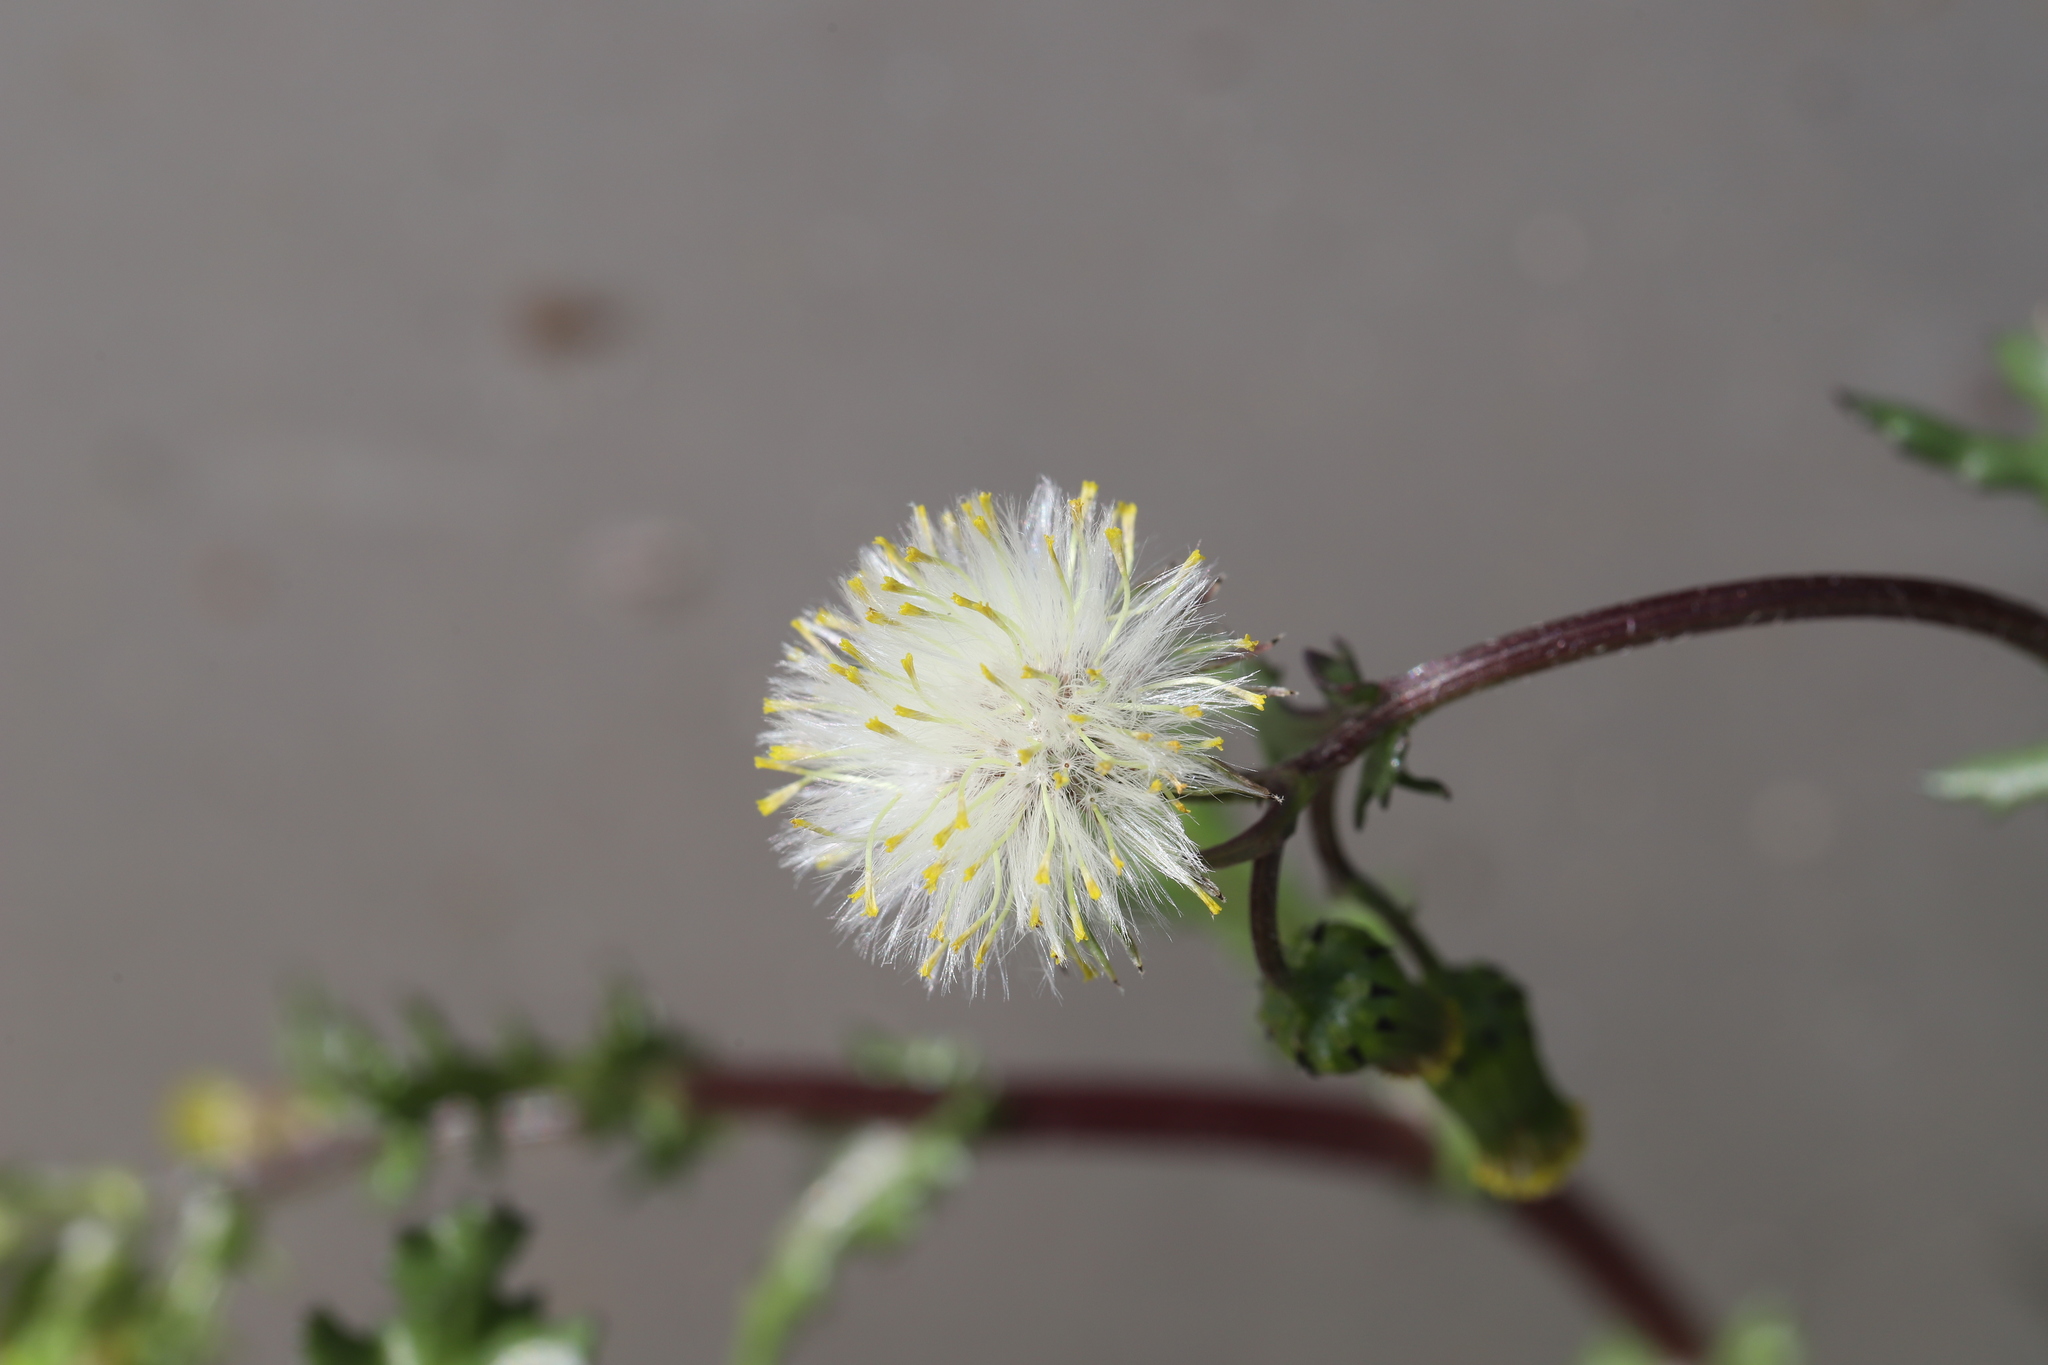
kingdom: Plantae
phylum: Tracheophyta
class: Magnoliopsida
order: Asterales
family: Asteraceae
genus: Senecio
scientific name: Senecio vulgaris
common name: Old-man-in-the-spring
